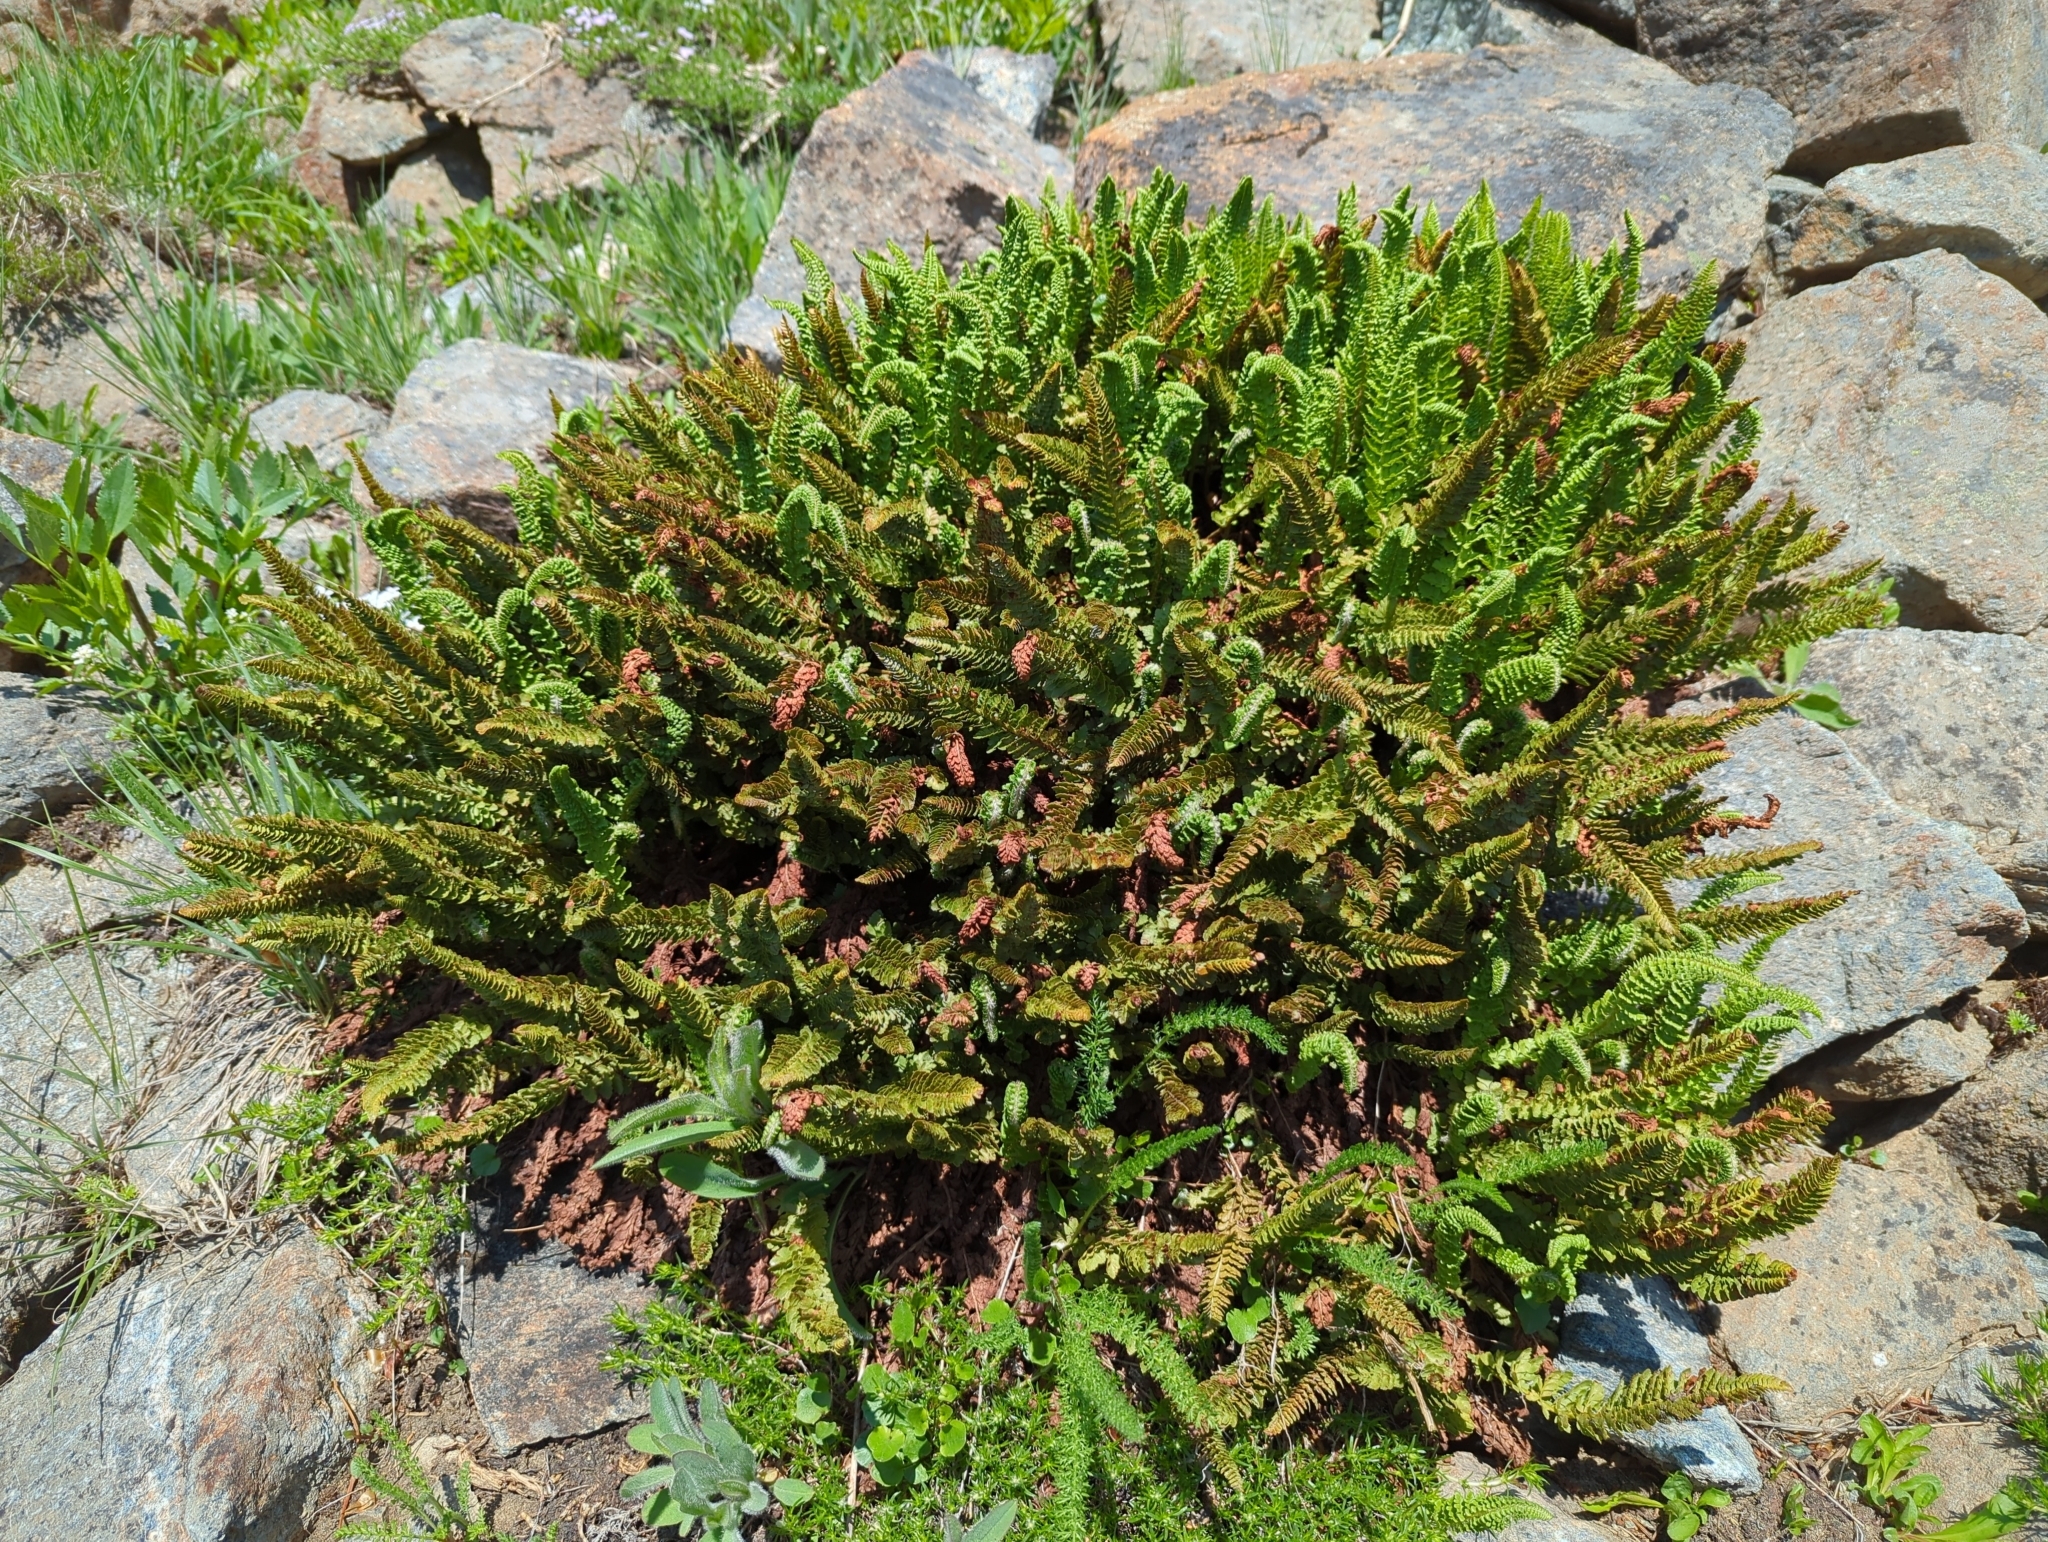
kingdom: Plantae
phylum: Tracheophyta
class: Polypodiopsida
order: Polypodiales
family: Dryopteridaceae
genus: Polystichum
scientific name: Polystichum lemmonii
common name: Lemmon's holly fern
